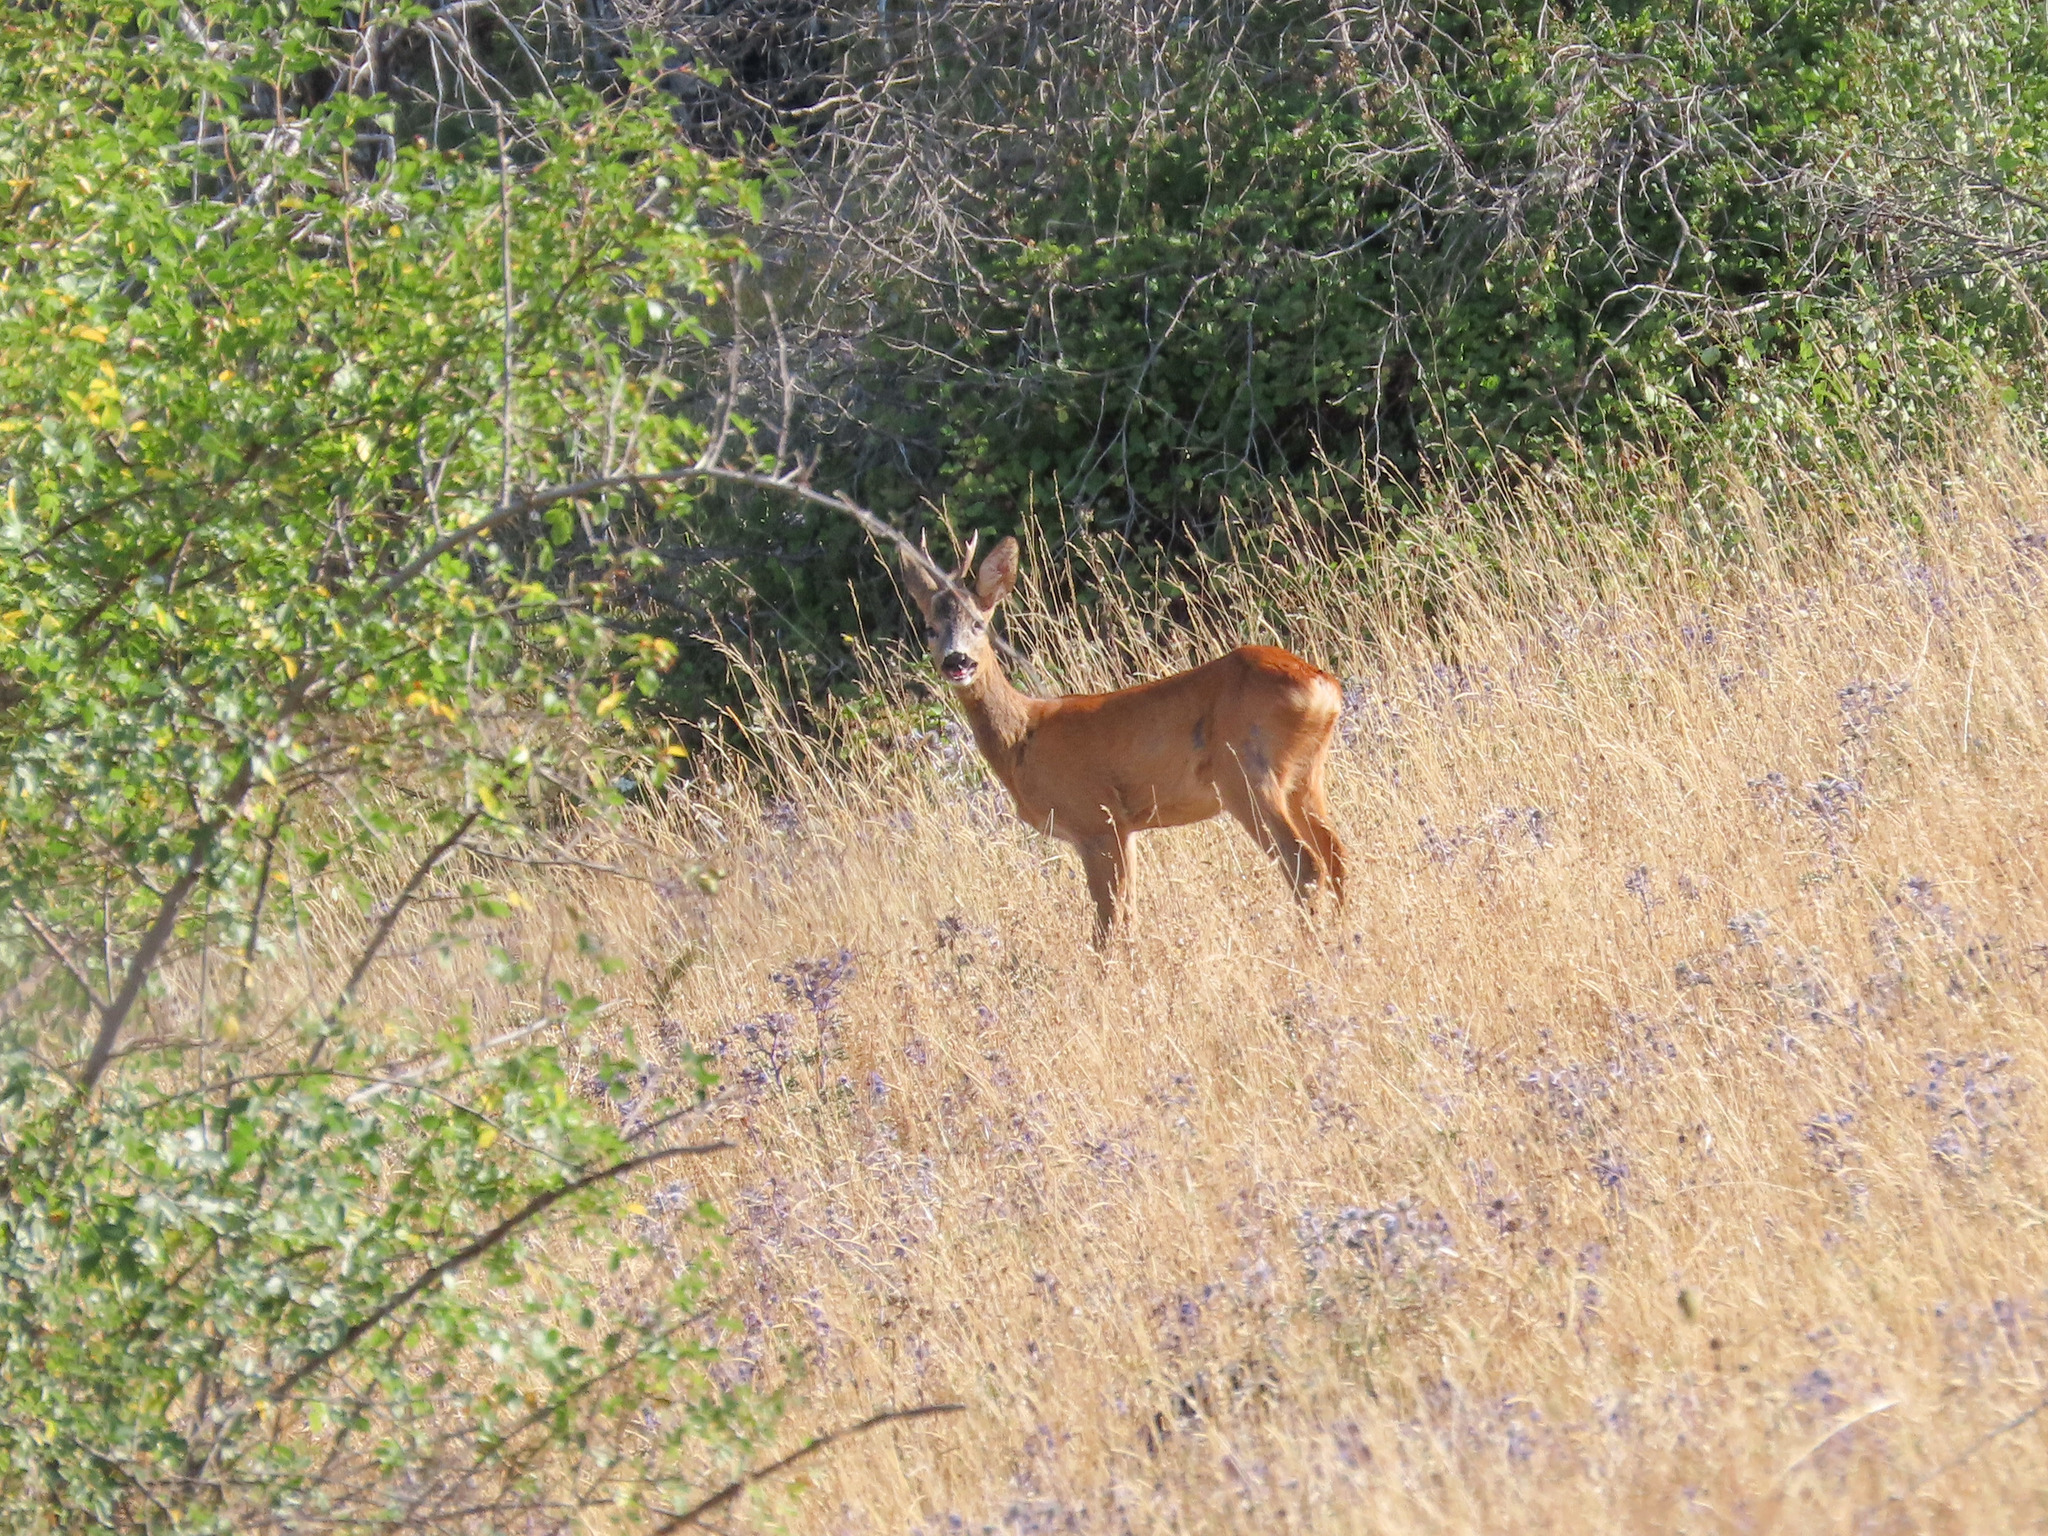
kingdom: Animalia
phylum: Chordata
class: Mammalia
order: Artiodactyla
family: Cervidae
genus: Capreolus
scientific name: Capreolus capreolus
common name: Western roe deer
